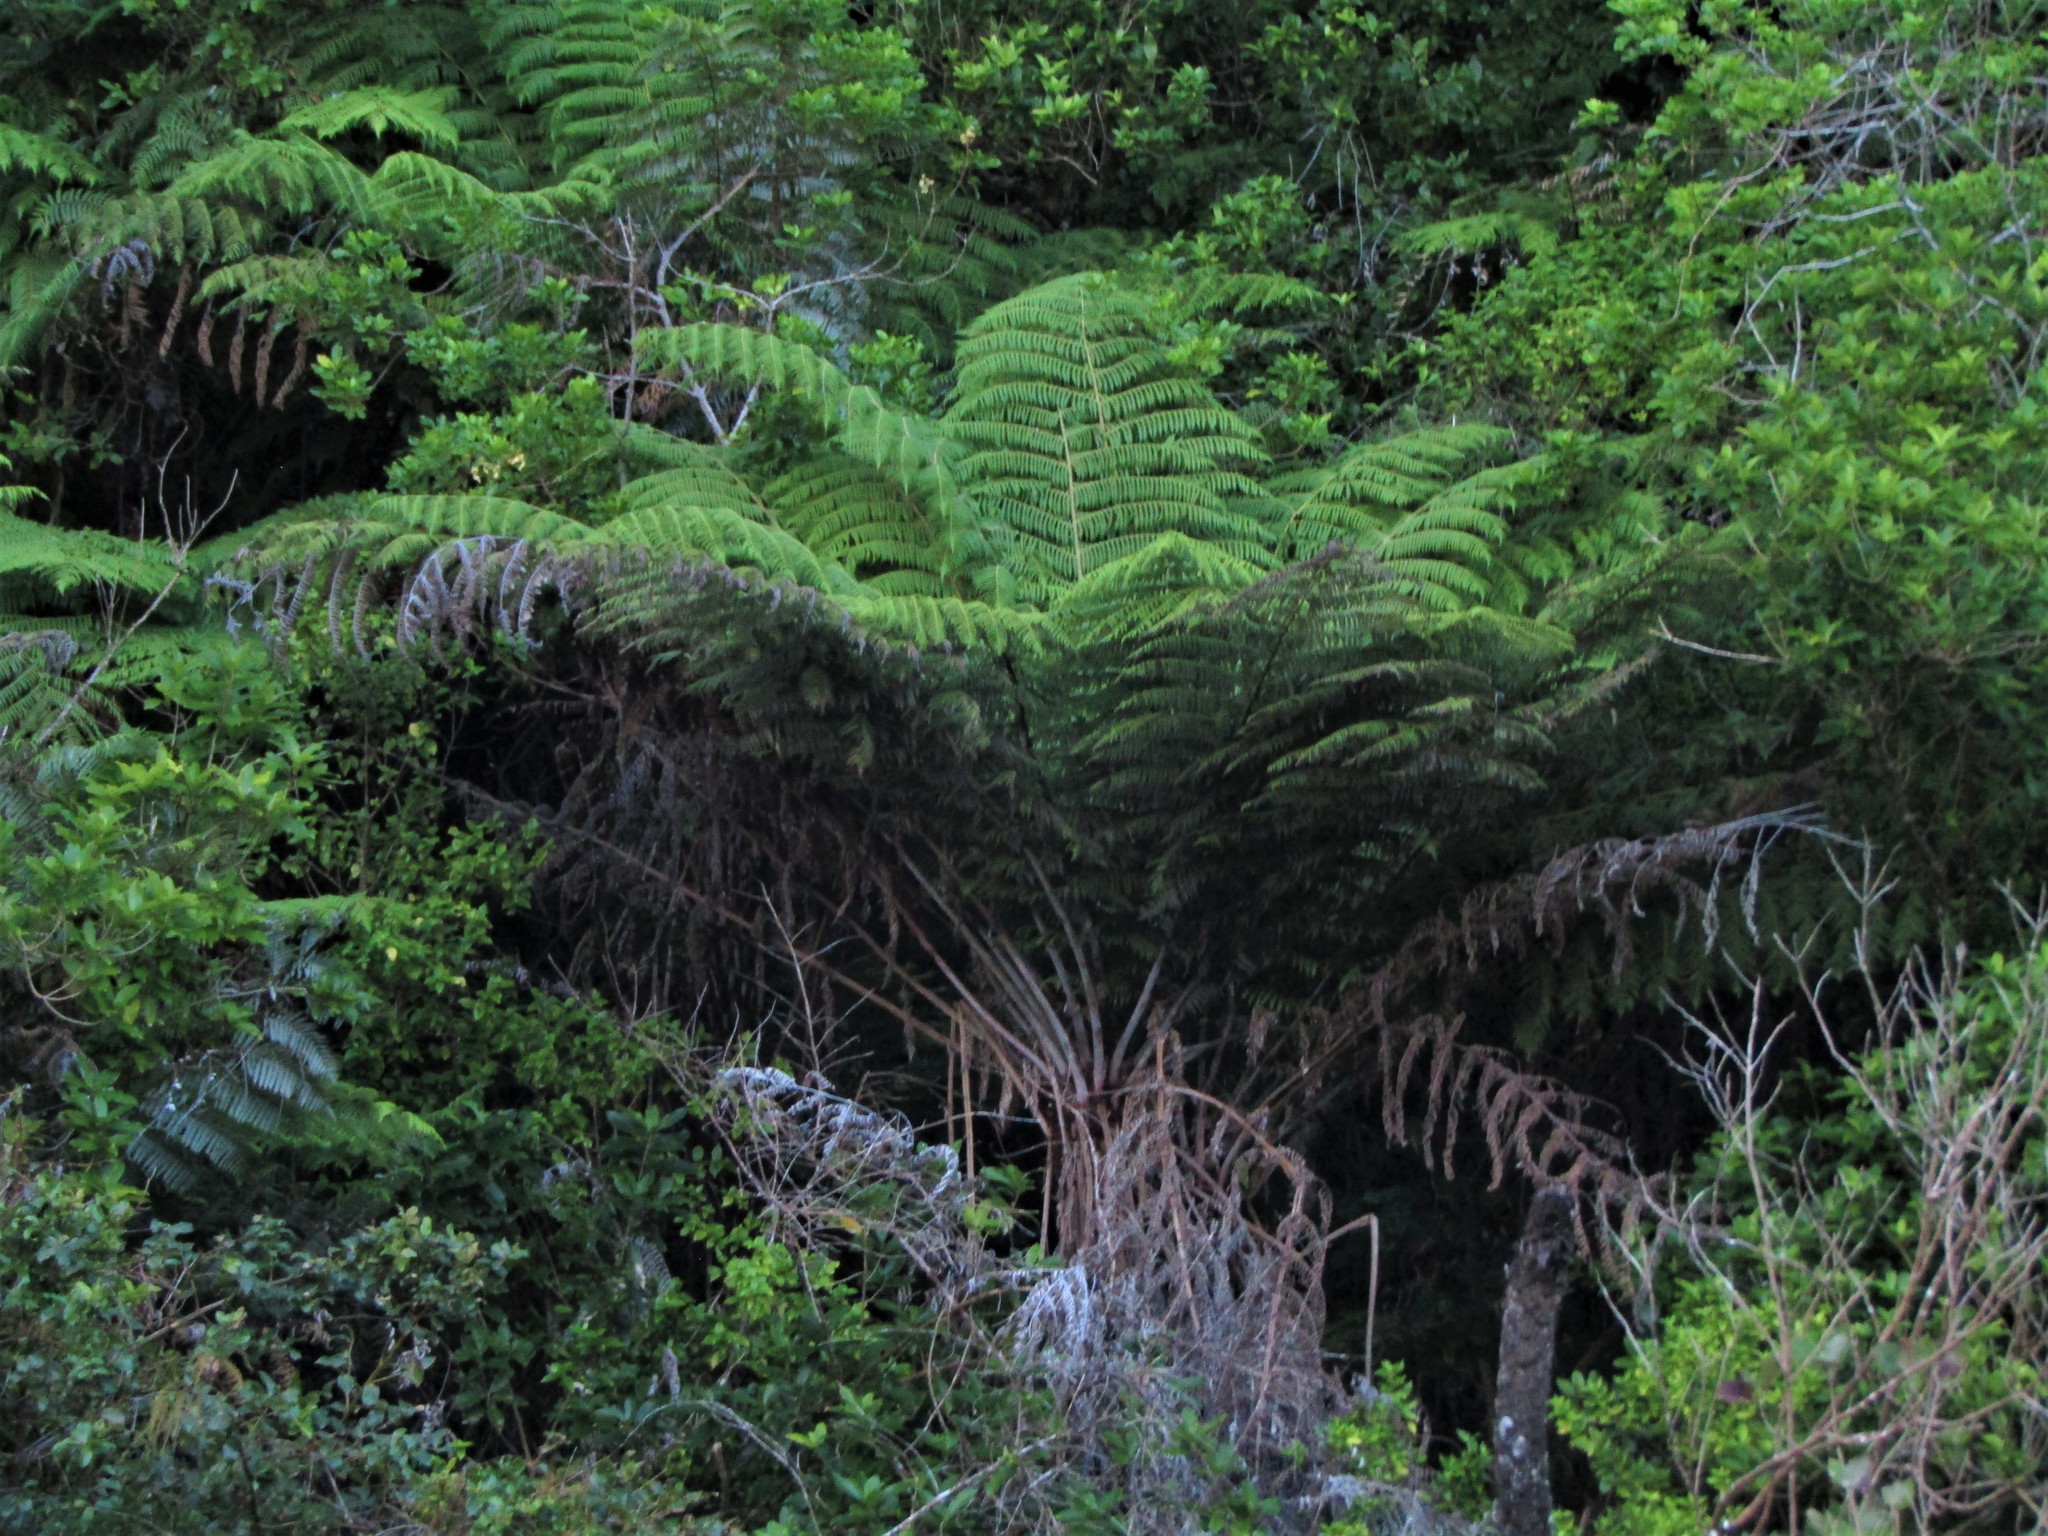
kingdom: Plantae
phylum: Tracheophyta
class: Polypodiopsida
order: Cyatheales
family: Cyatheaceae
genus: Alsophila
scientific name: Alsophila dealbata
